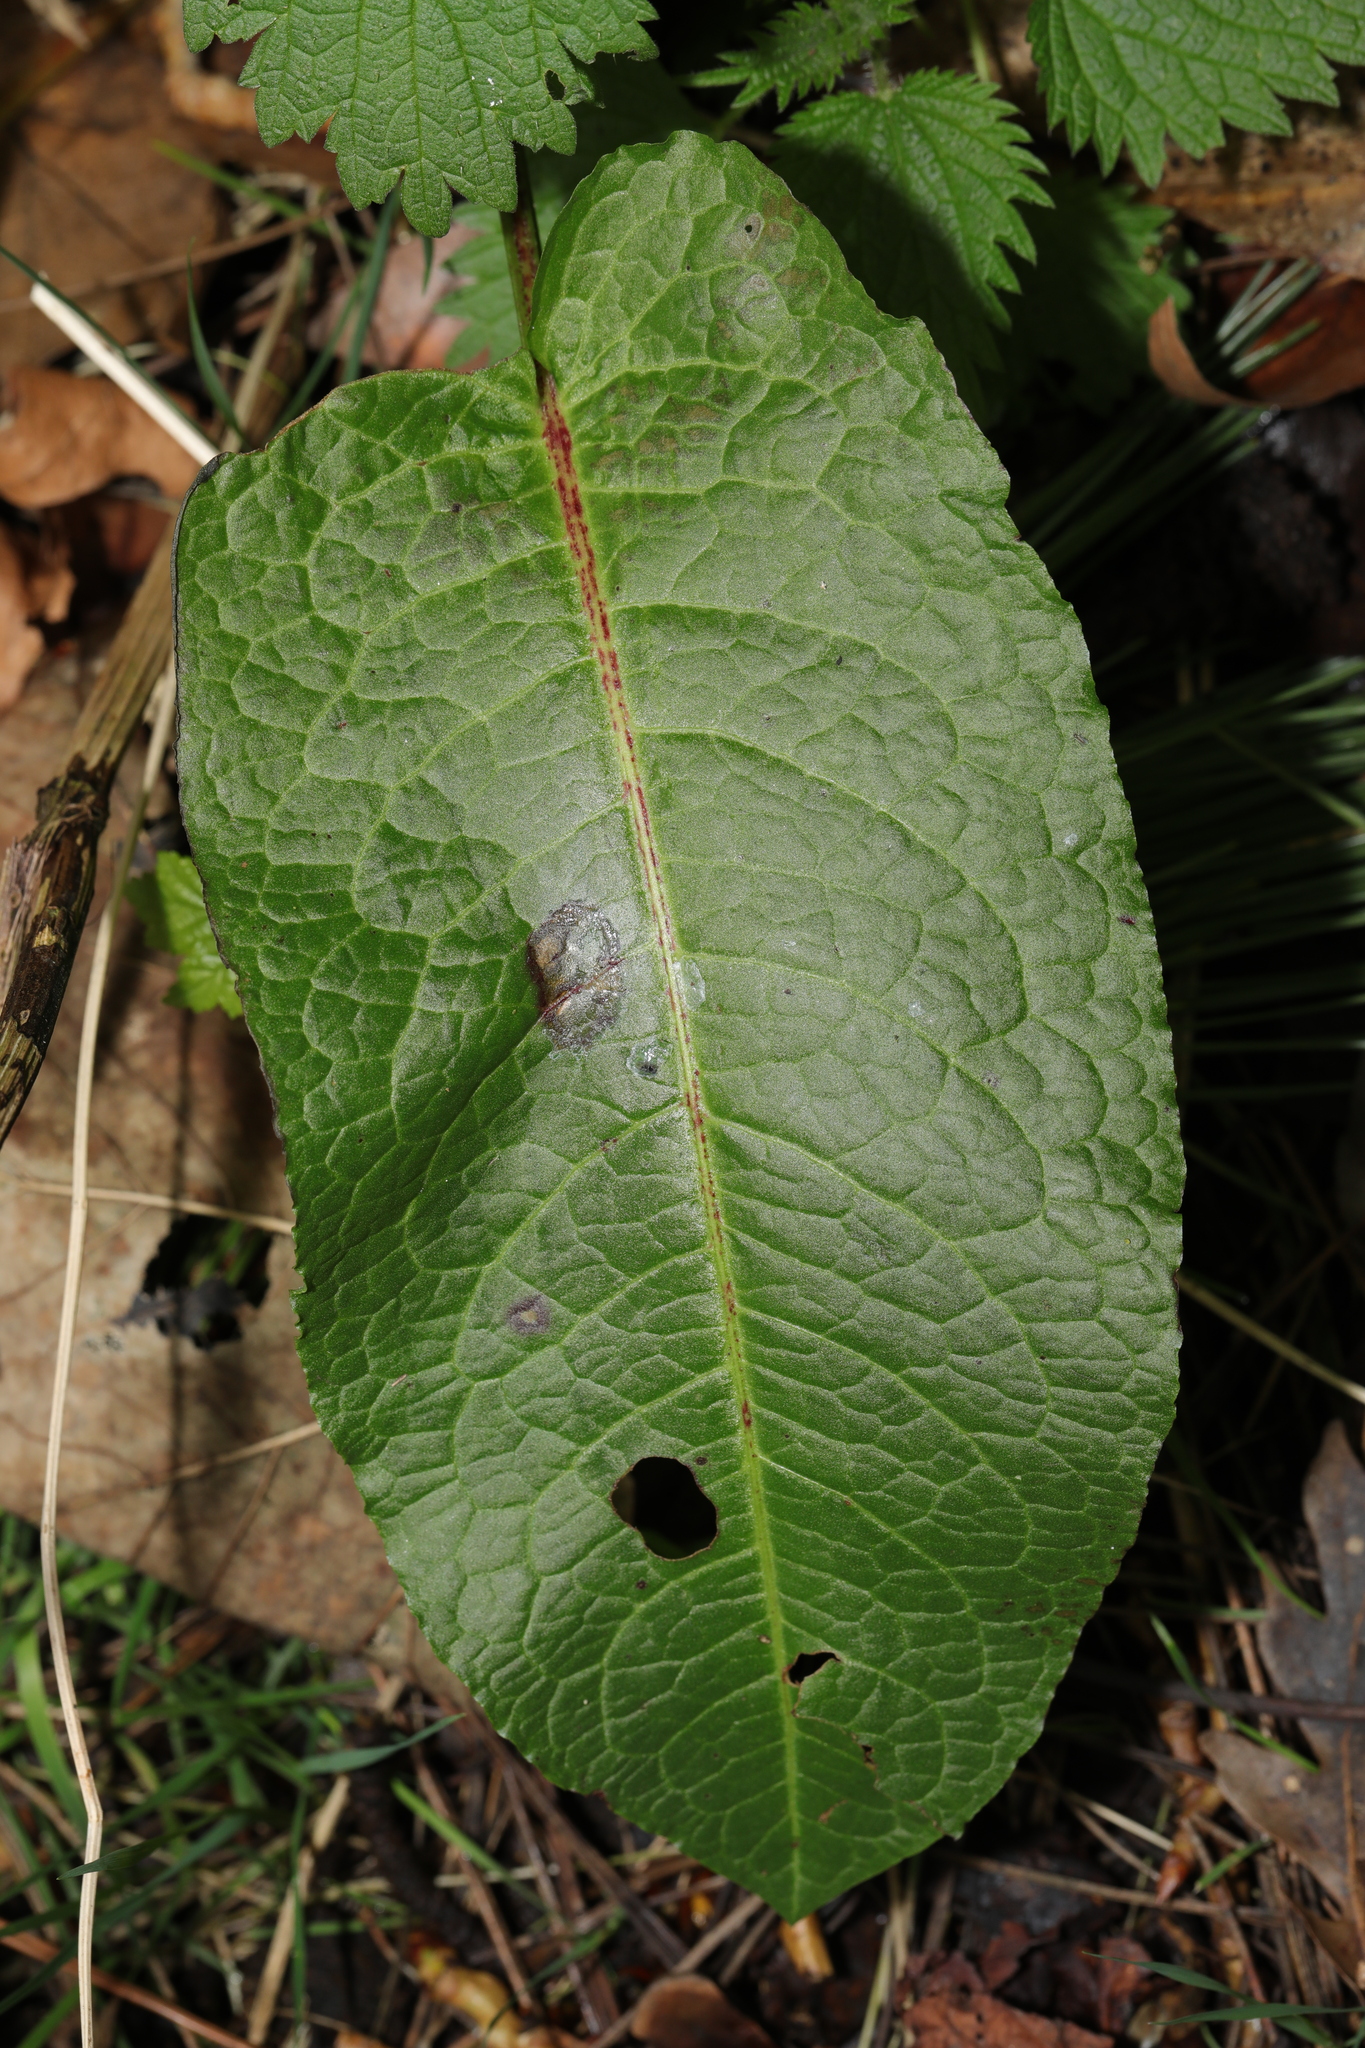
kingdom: Plantae
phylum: Tracheophyta
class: Magnoliopsida
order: Caryophyllales
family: Polygonaceae
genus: Rumex
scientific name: Rumex obtusifolius
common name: Bitter dock
